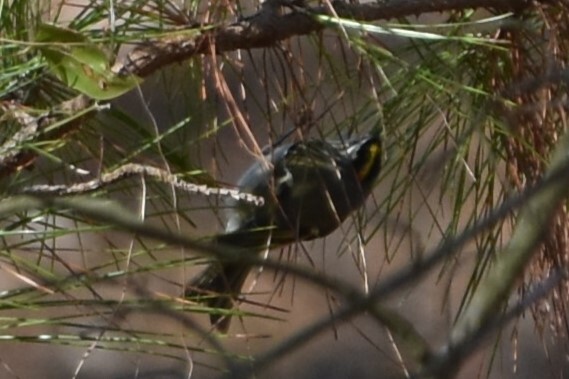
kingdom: Animalia
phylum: Chordata
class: Aves
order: Passeriformes
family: Regulidae
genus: Regulus
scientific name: Regulus satrapa
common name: Golden-crowned kinglet
